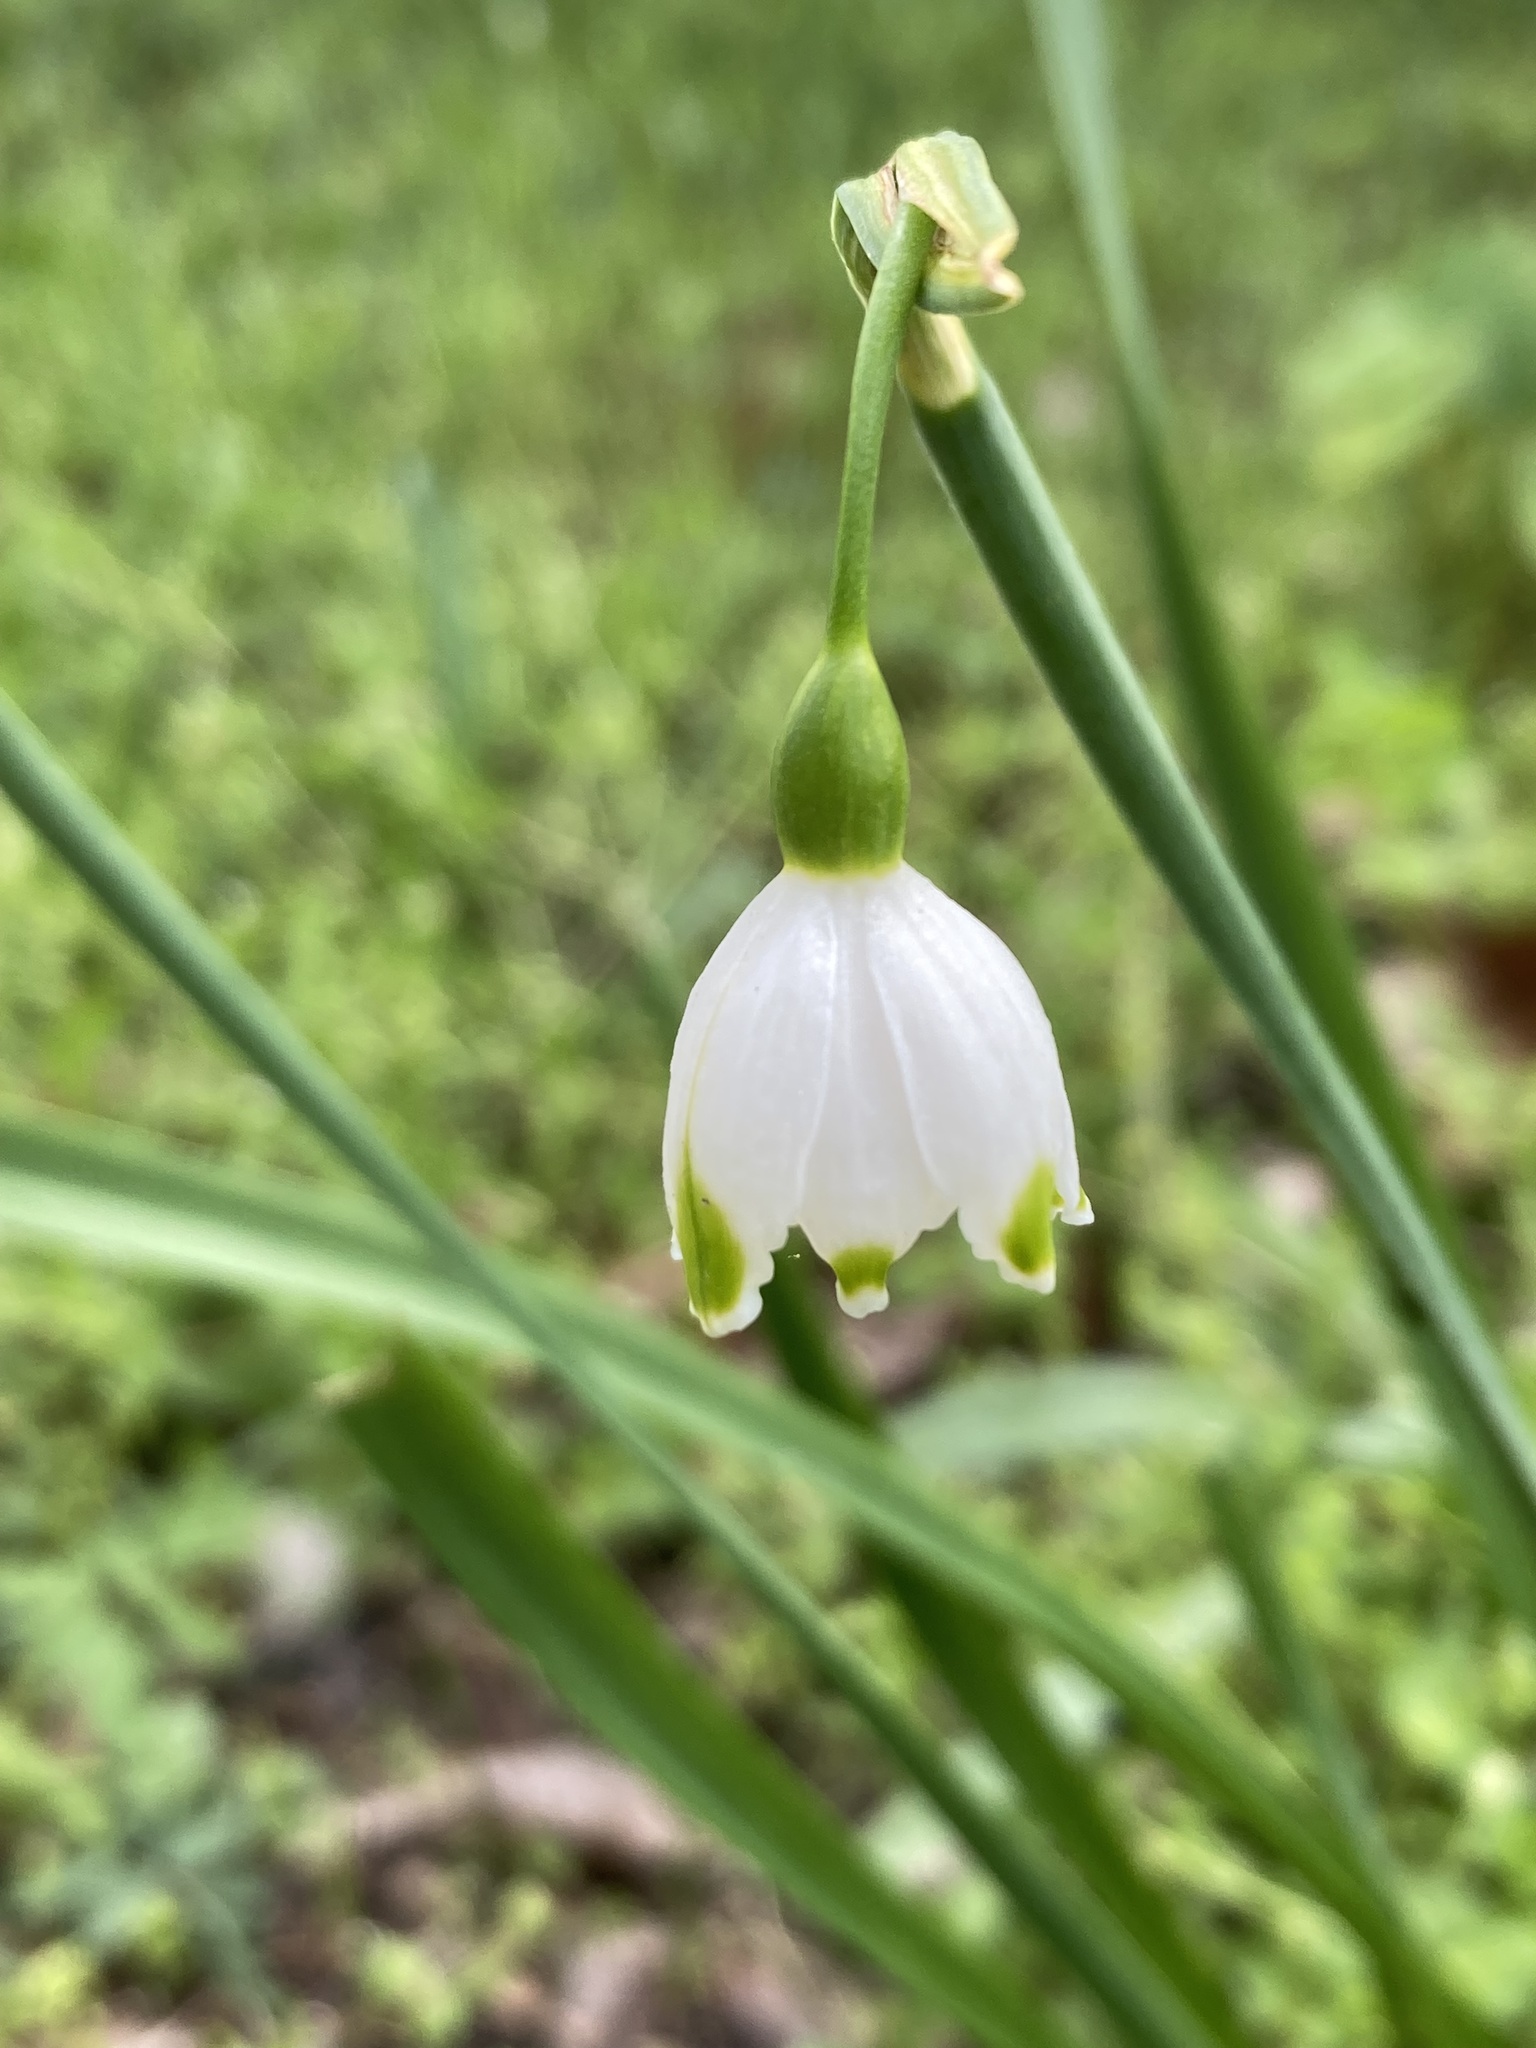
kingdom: Plantae
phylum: Tracheophyta
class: Liliopsida
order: Asparagales
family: Amaryllidaceae
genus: Leucojum
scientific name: Leucojum aestivum
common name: Summer snowflake
